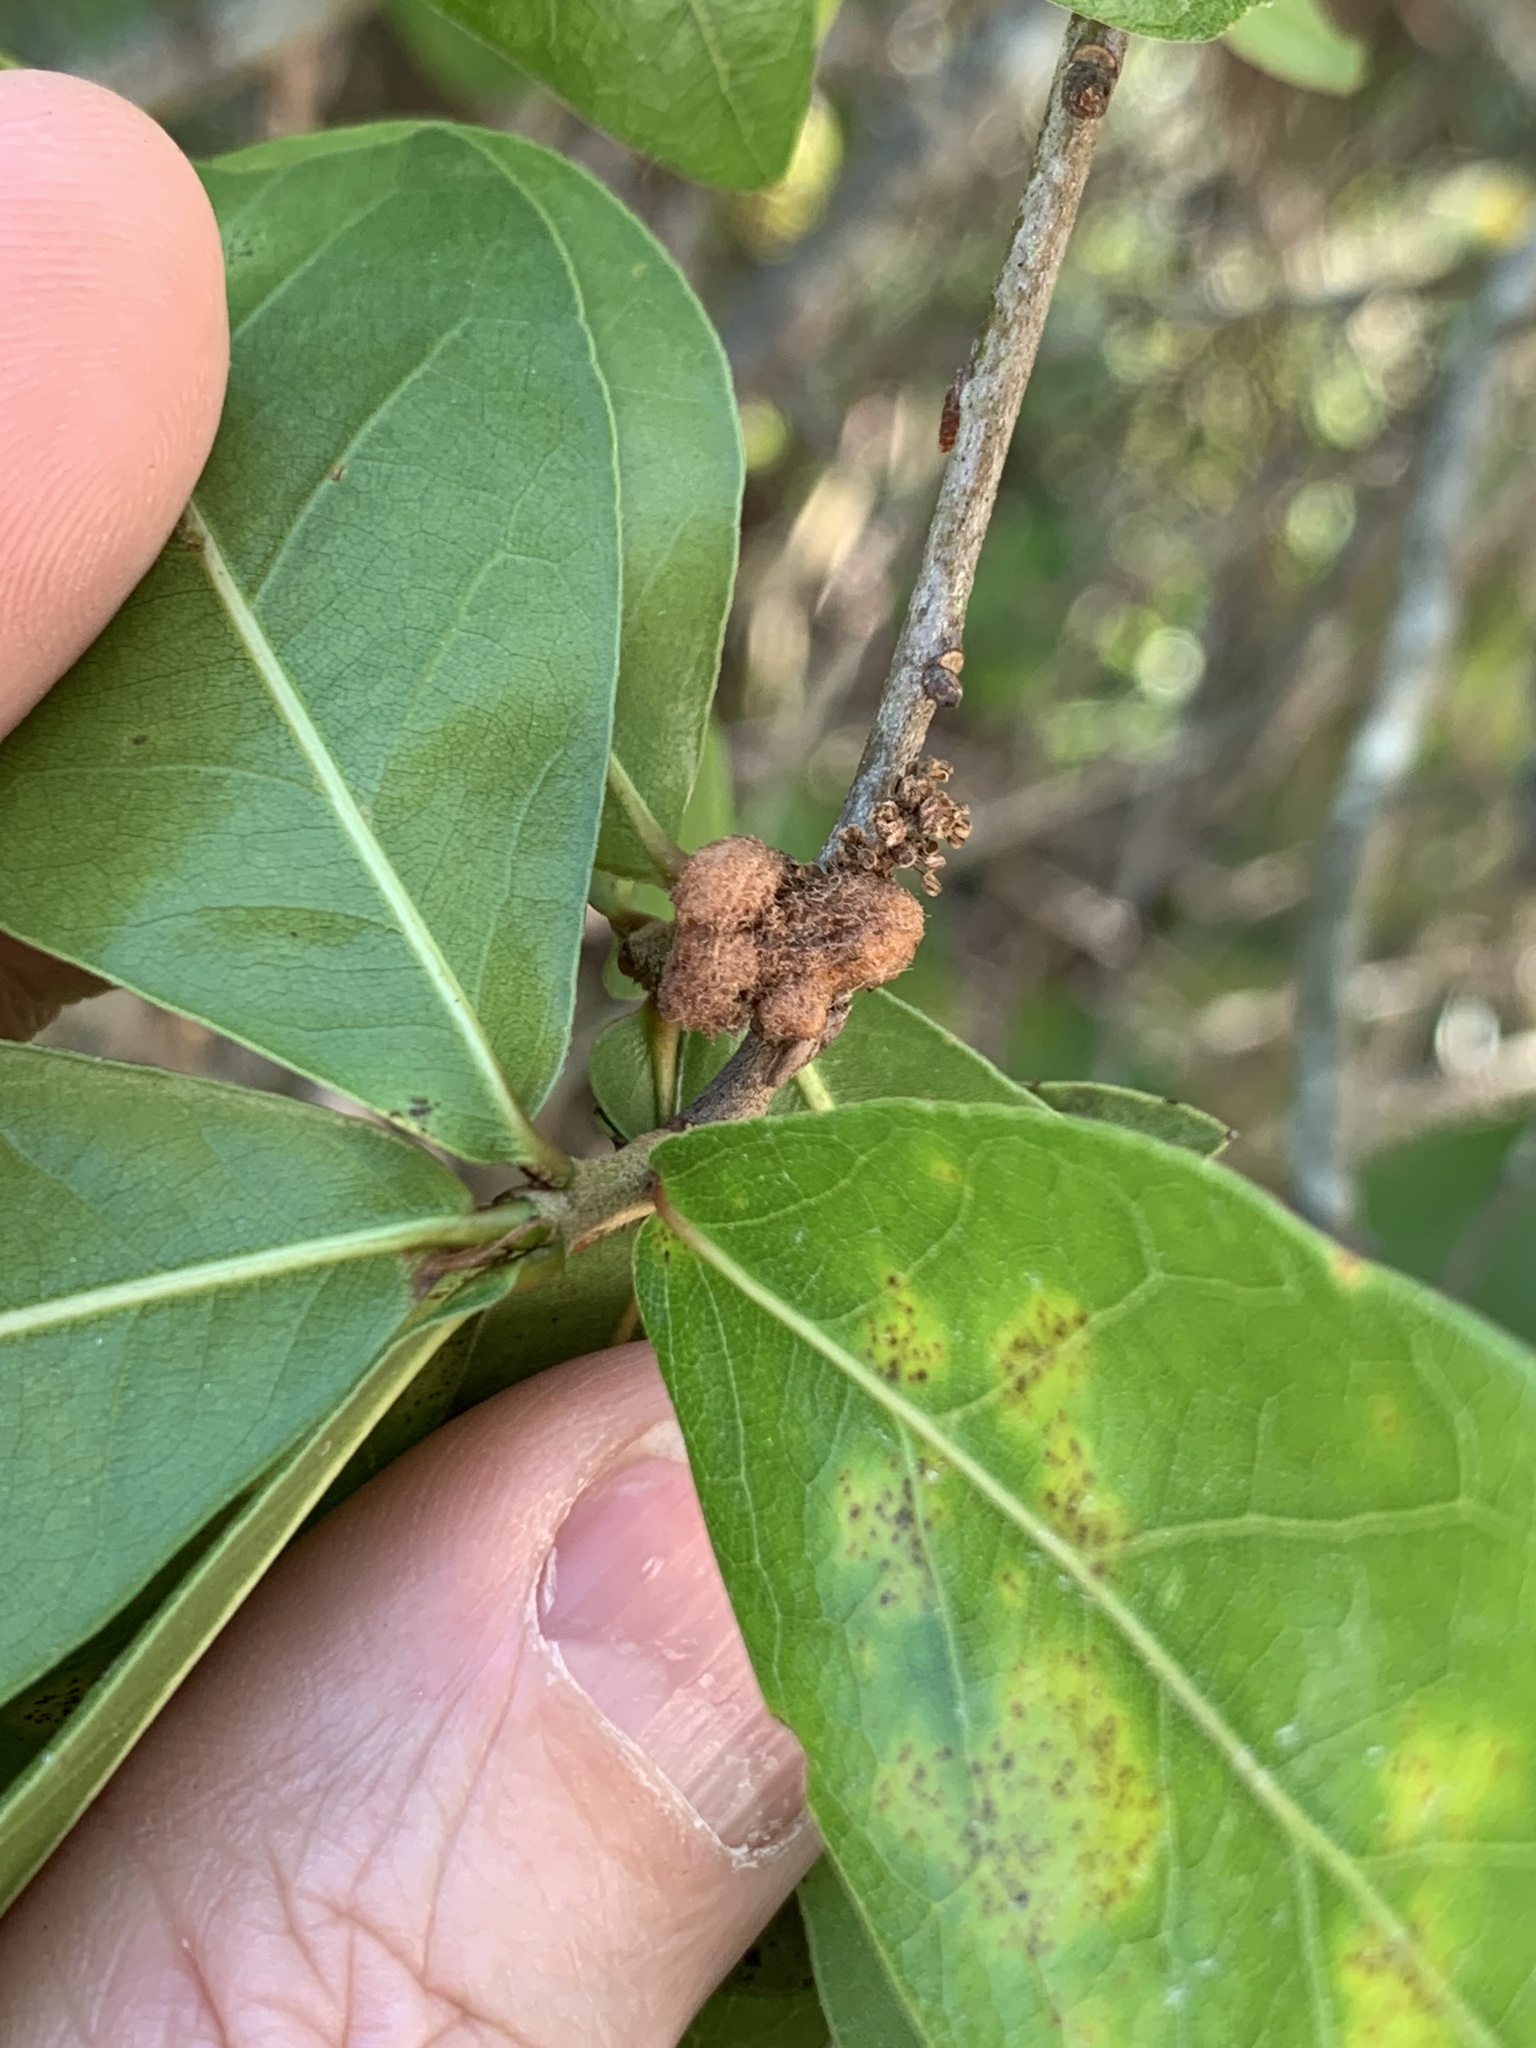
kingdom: Animalia
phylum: Arthropoda
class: Insecta
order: Hymenoptera
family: Cynipidae
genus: Callirhytis
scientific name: Callirhytis
